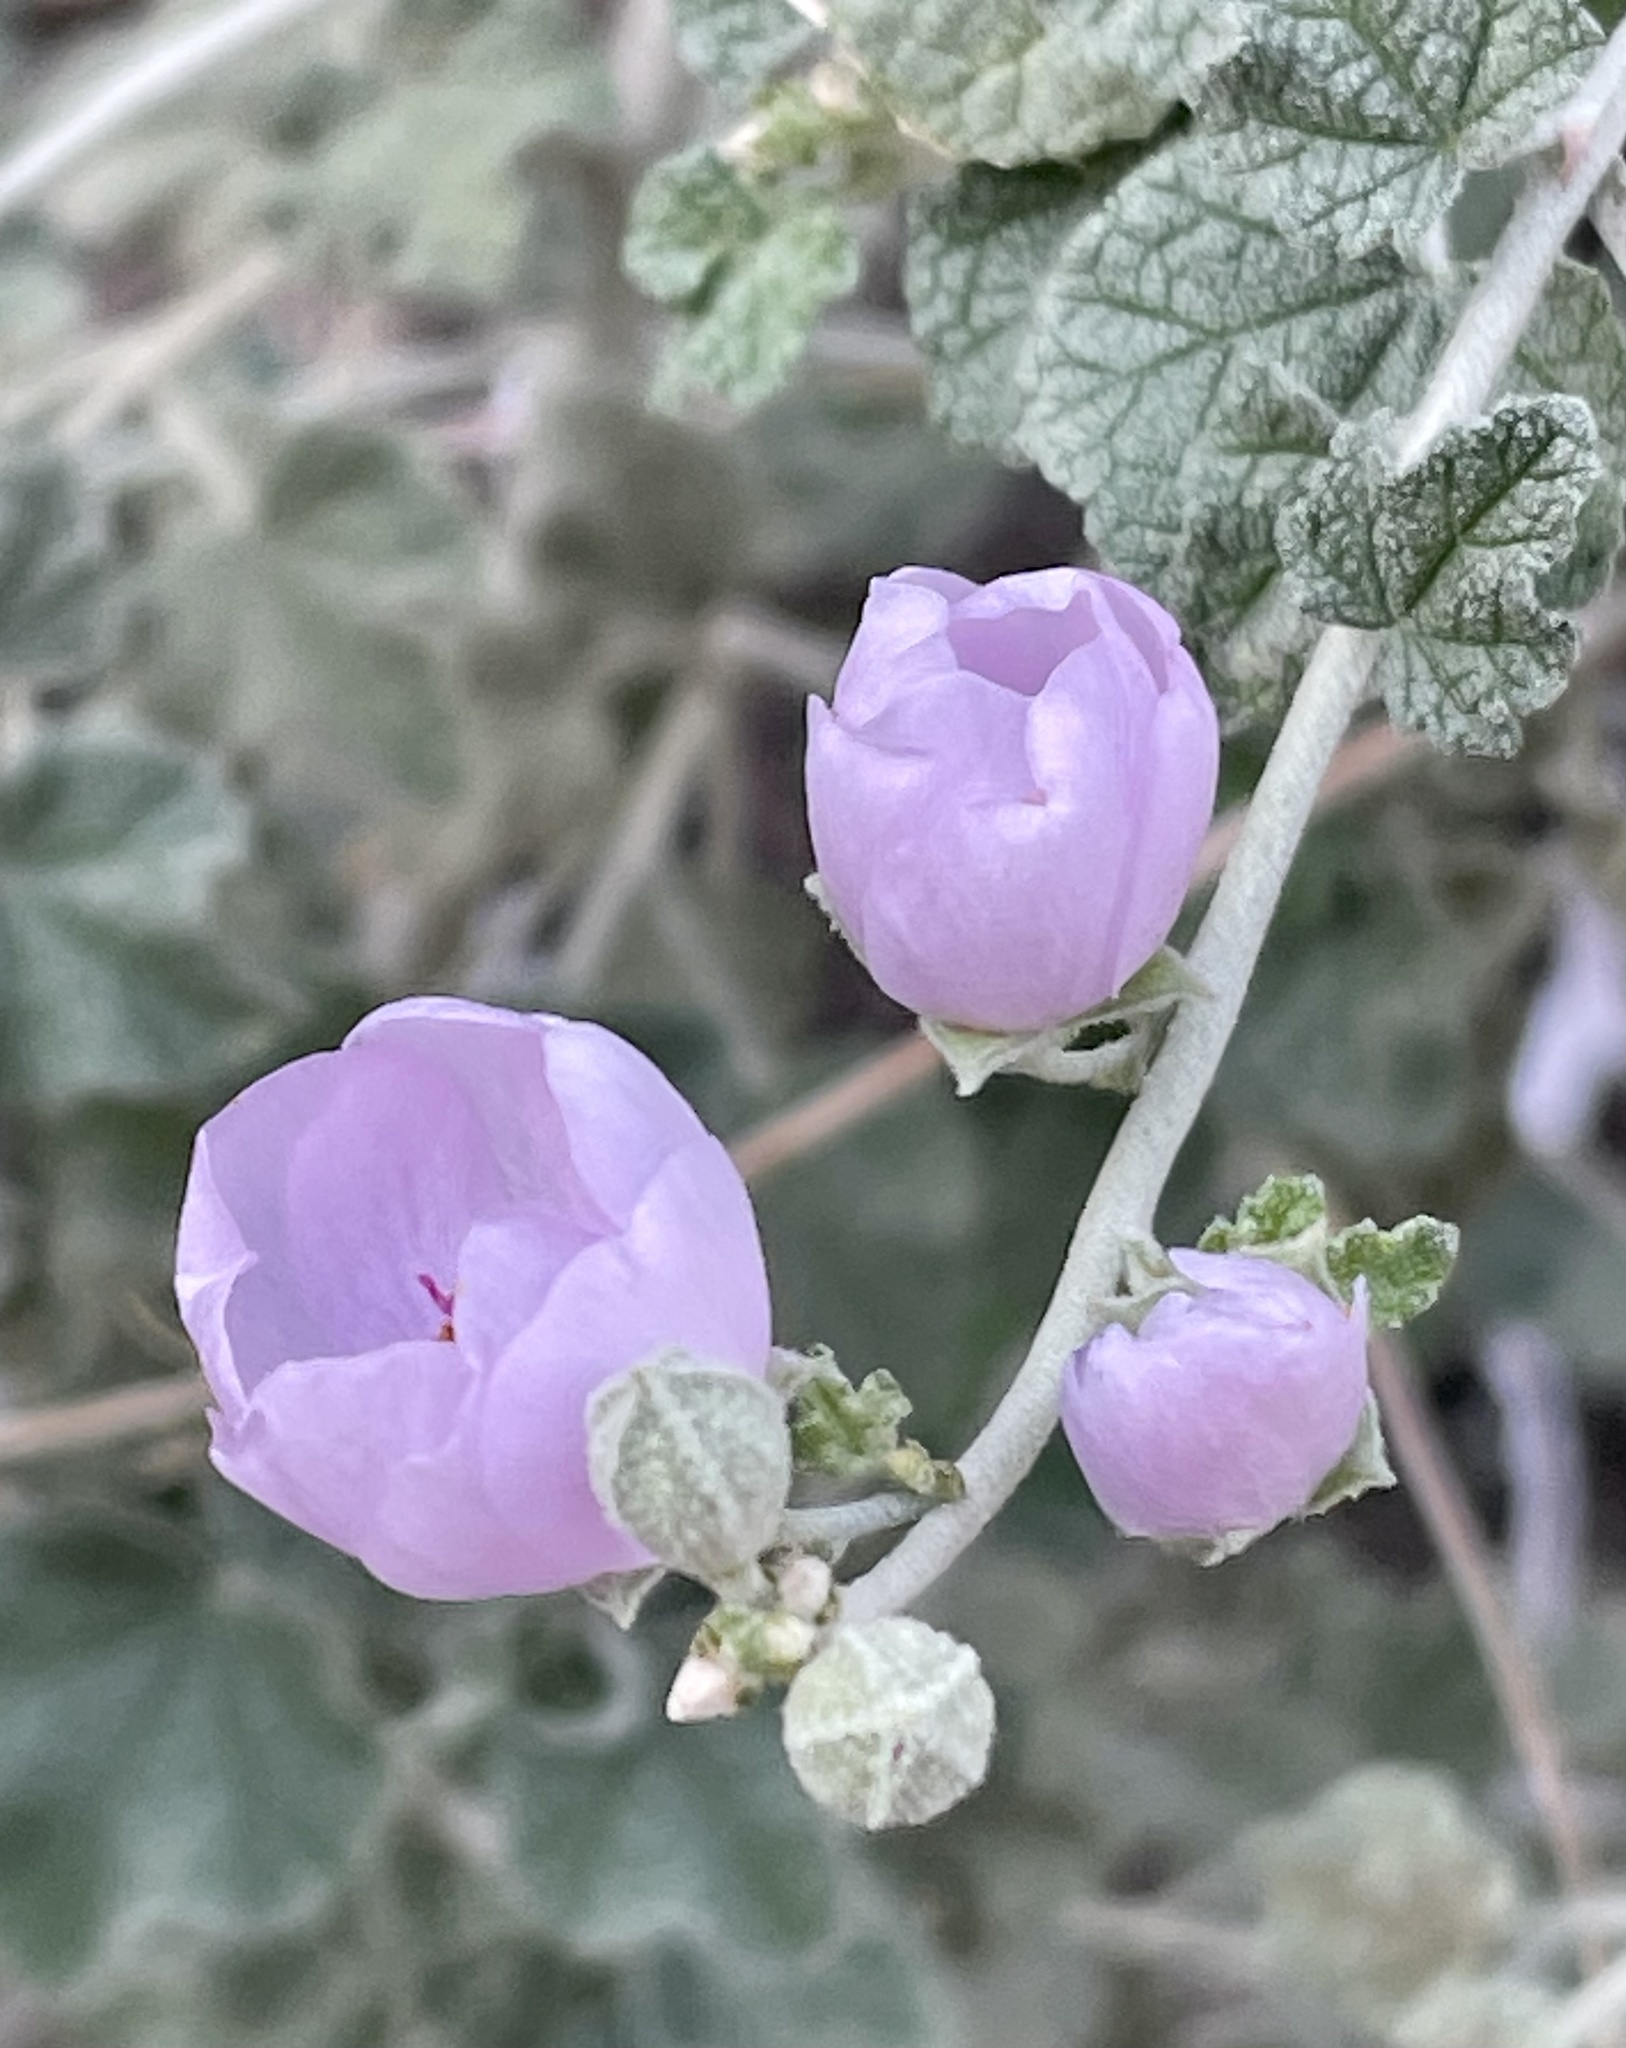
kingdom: Plantae
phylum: Tracheophyta
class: Magnoliopsida
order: Malvales
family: Malvaceae
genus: Malacothamnus
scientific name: Malacothamnus fasciculatus
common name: Sant cruz island bush-mallow
